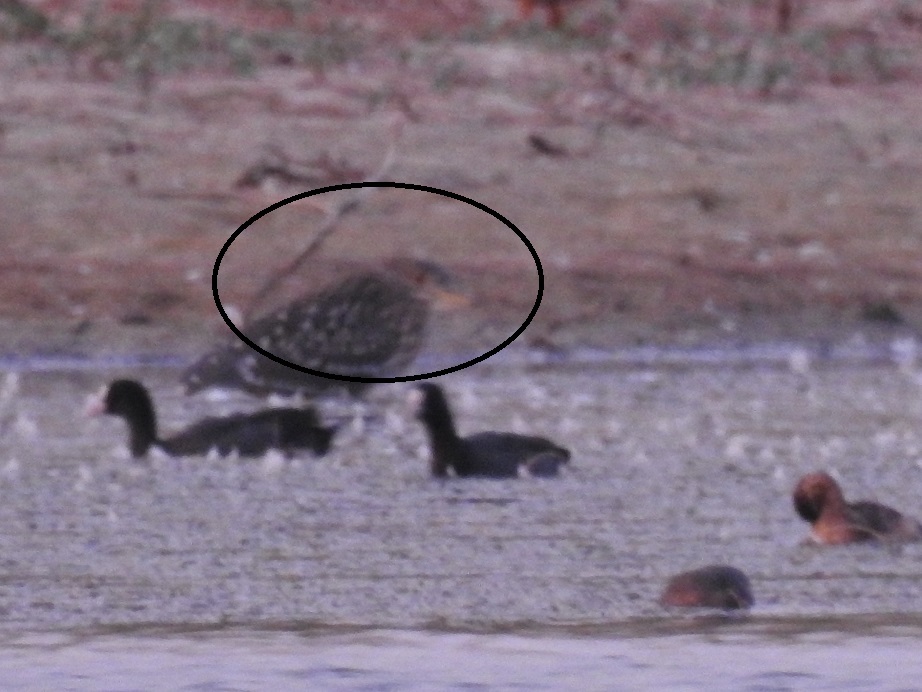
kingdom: Animalia
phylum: Chordata
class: Aves
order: Pelecaniformes
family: Ardeidae
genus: Nycticorax
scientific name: Nycticorax nycticorax
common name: Black-crowned night heron
